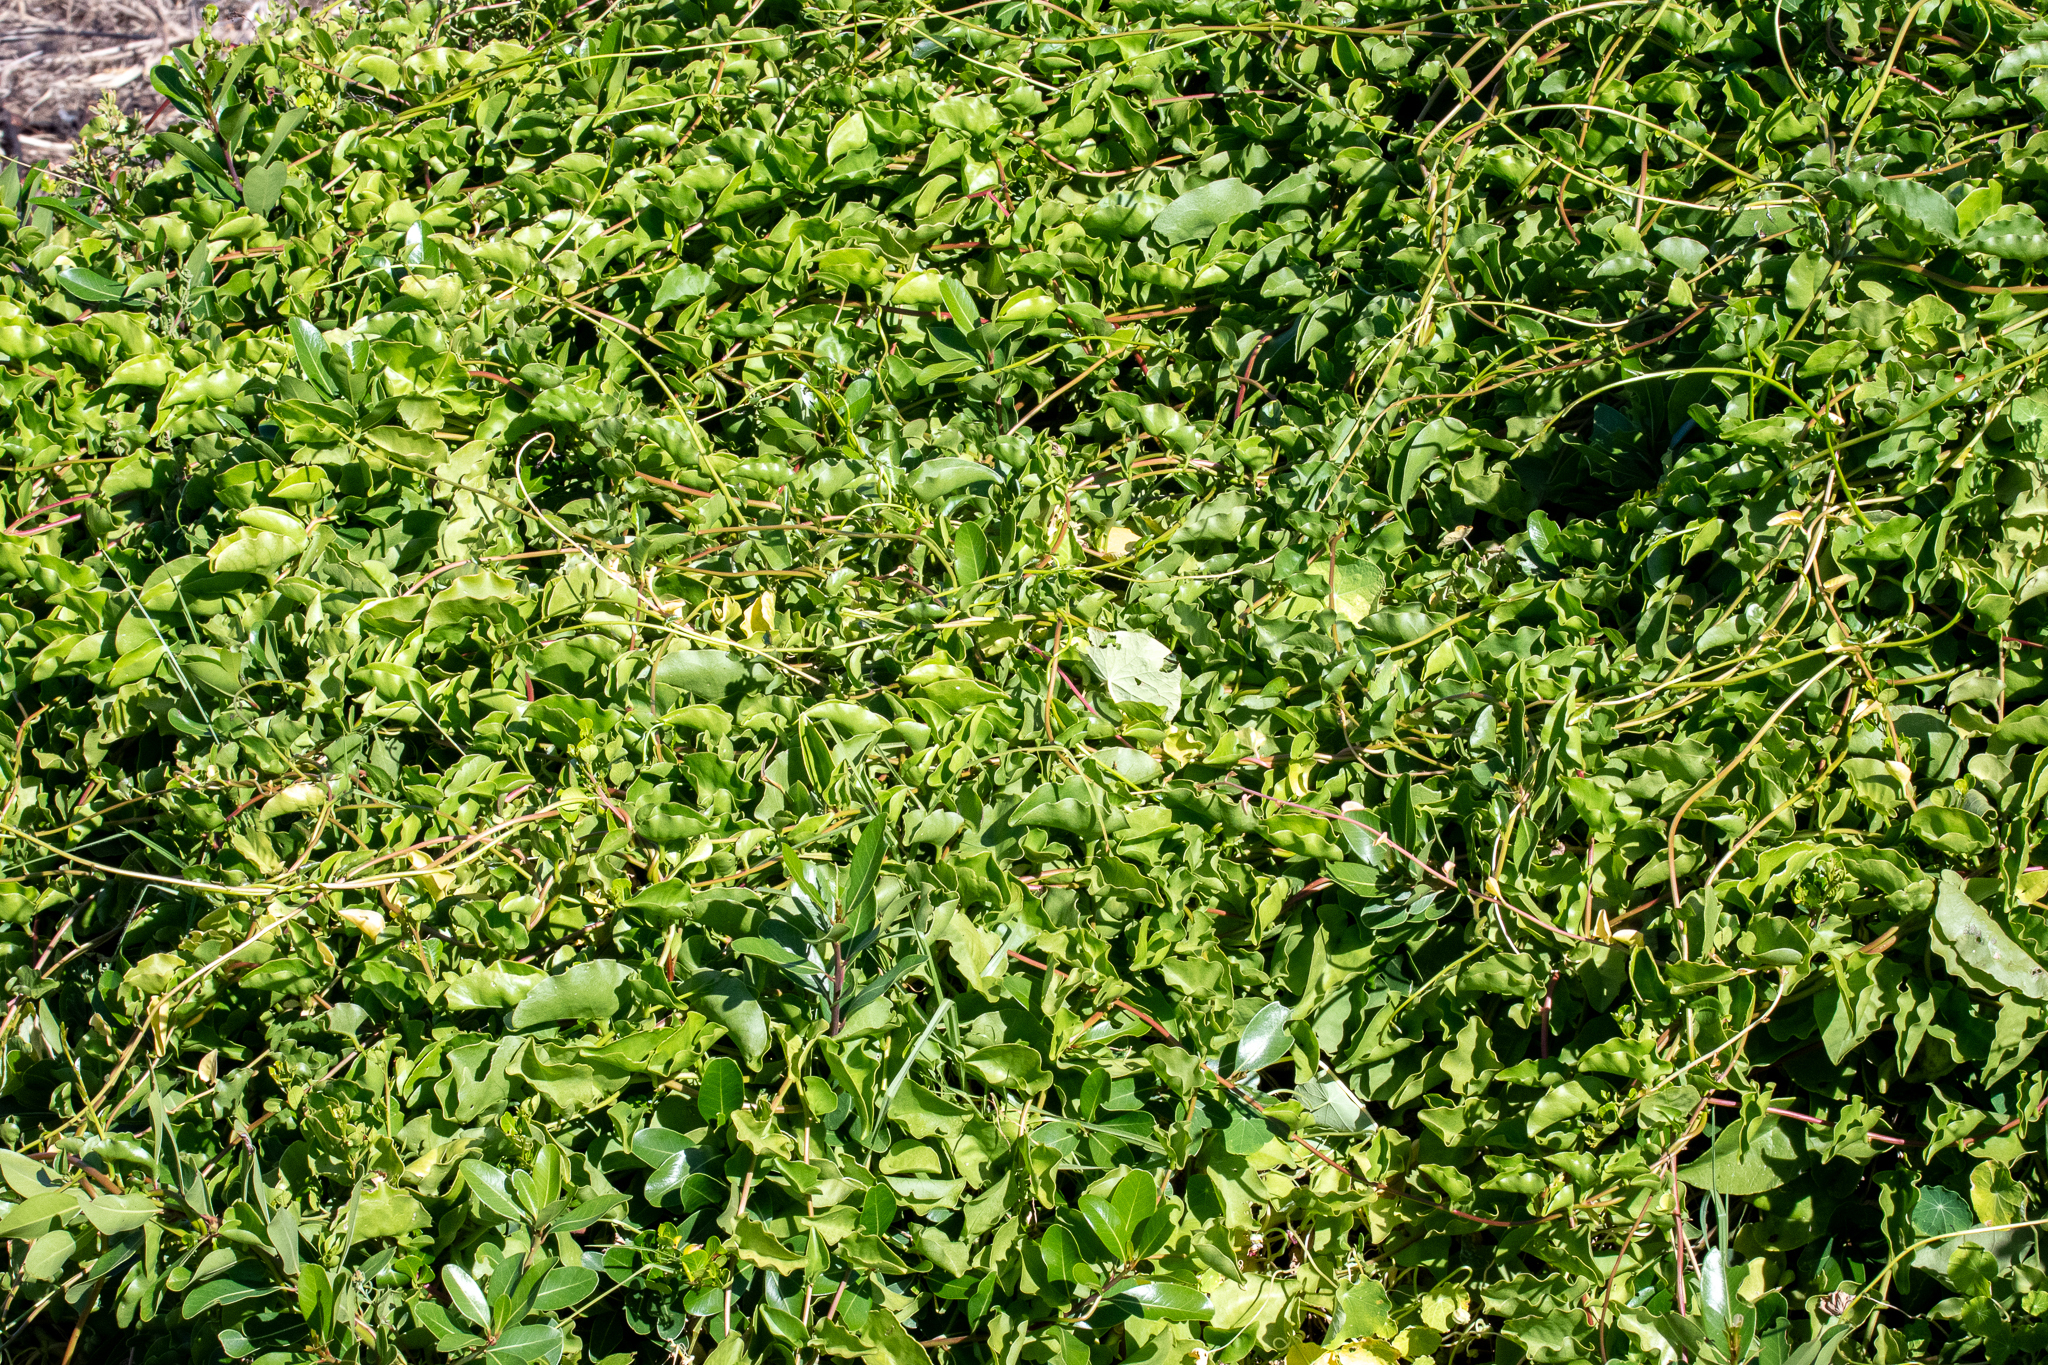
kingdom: Plantae
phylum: Tracheophyta
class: Magnoliopsida
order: Caryophyllales
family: Basellaceae
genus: Anredera
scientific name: Anredera cordifolia
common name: Heartleaf madeiravine
